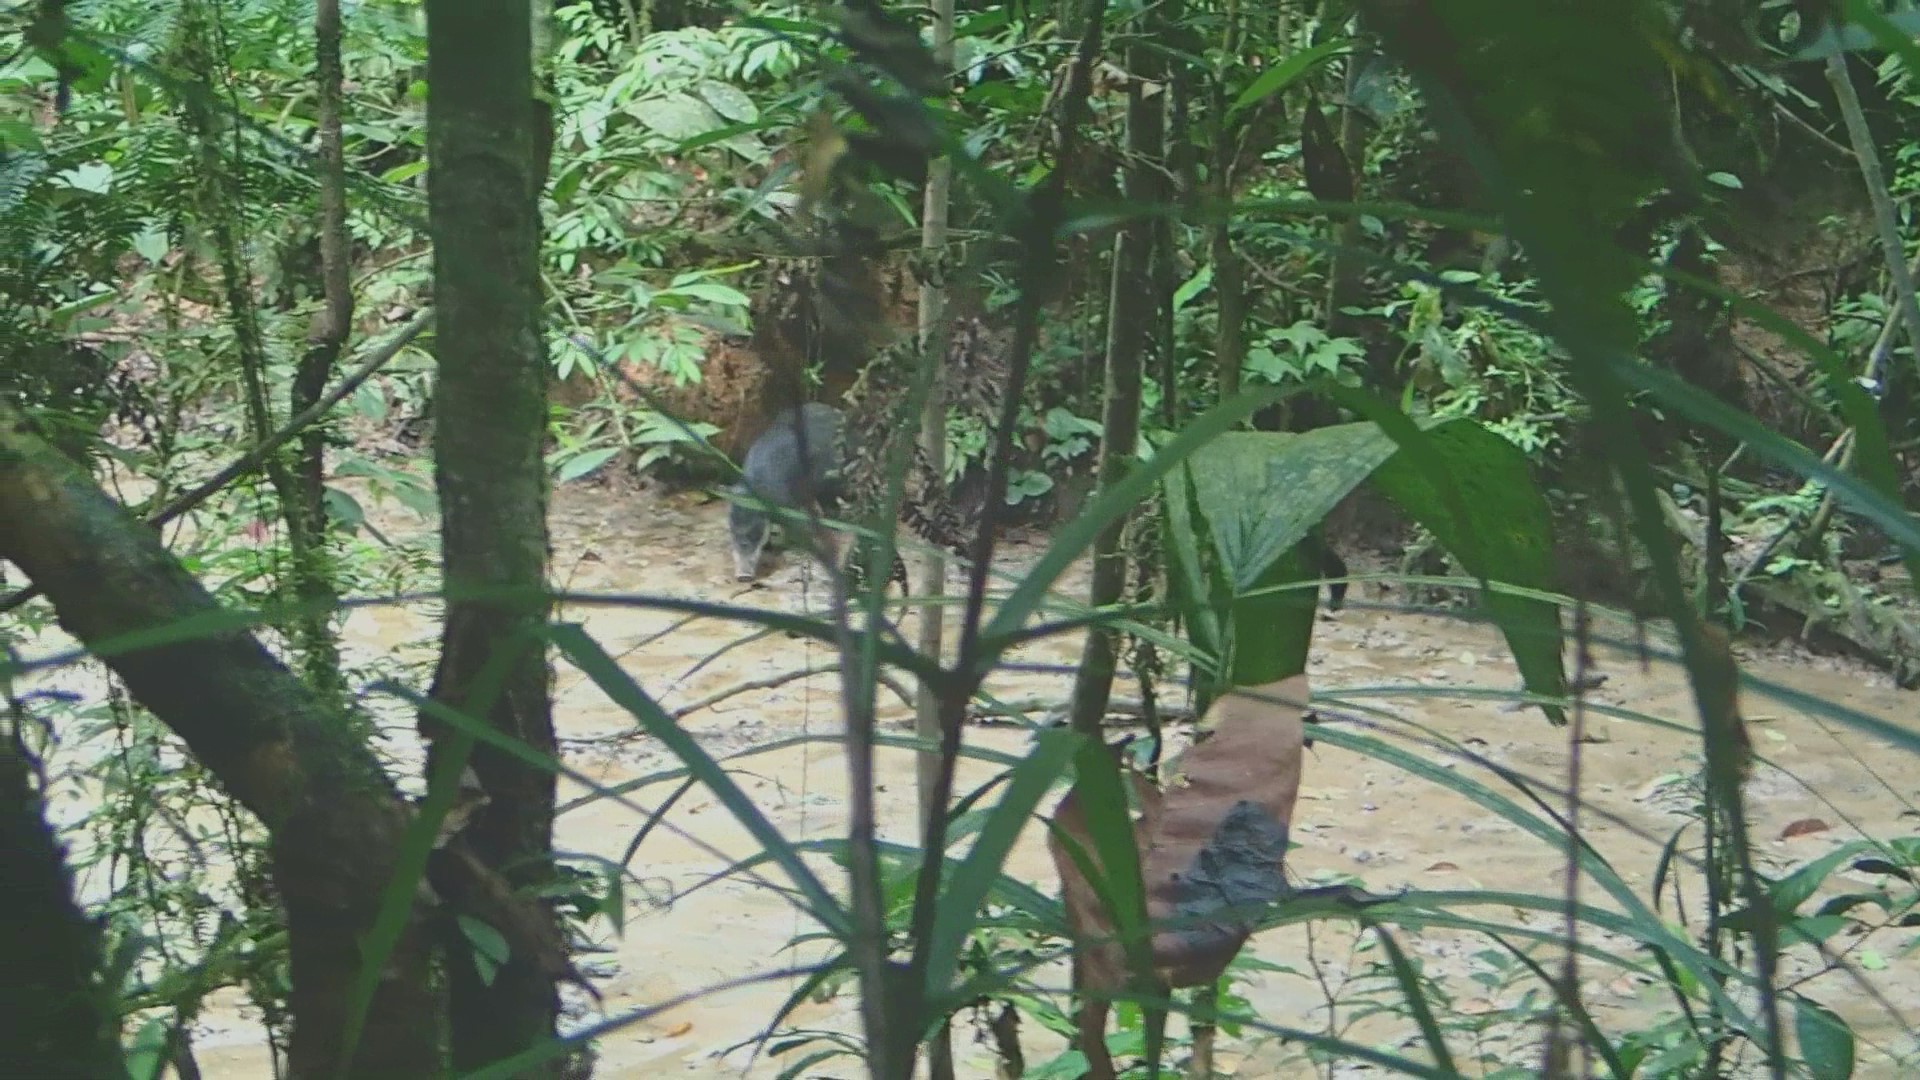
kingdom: Animalia
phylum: Chordata
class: Mammalia
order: Artiodactyla
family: Tayassuidae
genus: Tayassu
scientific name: Tayassu pecari
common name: White-lipped peccary
